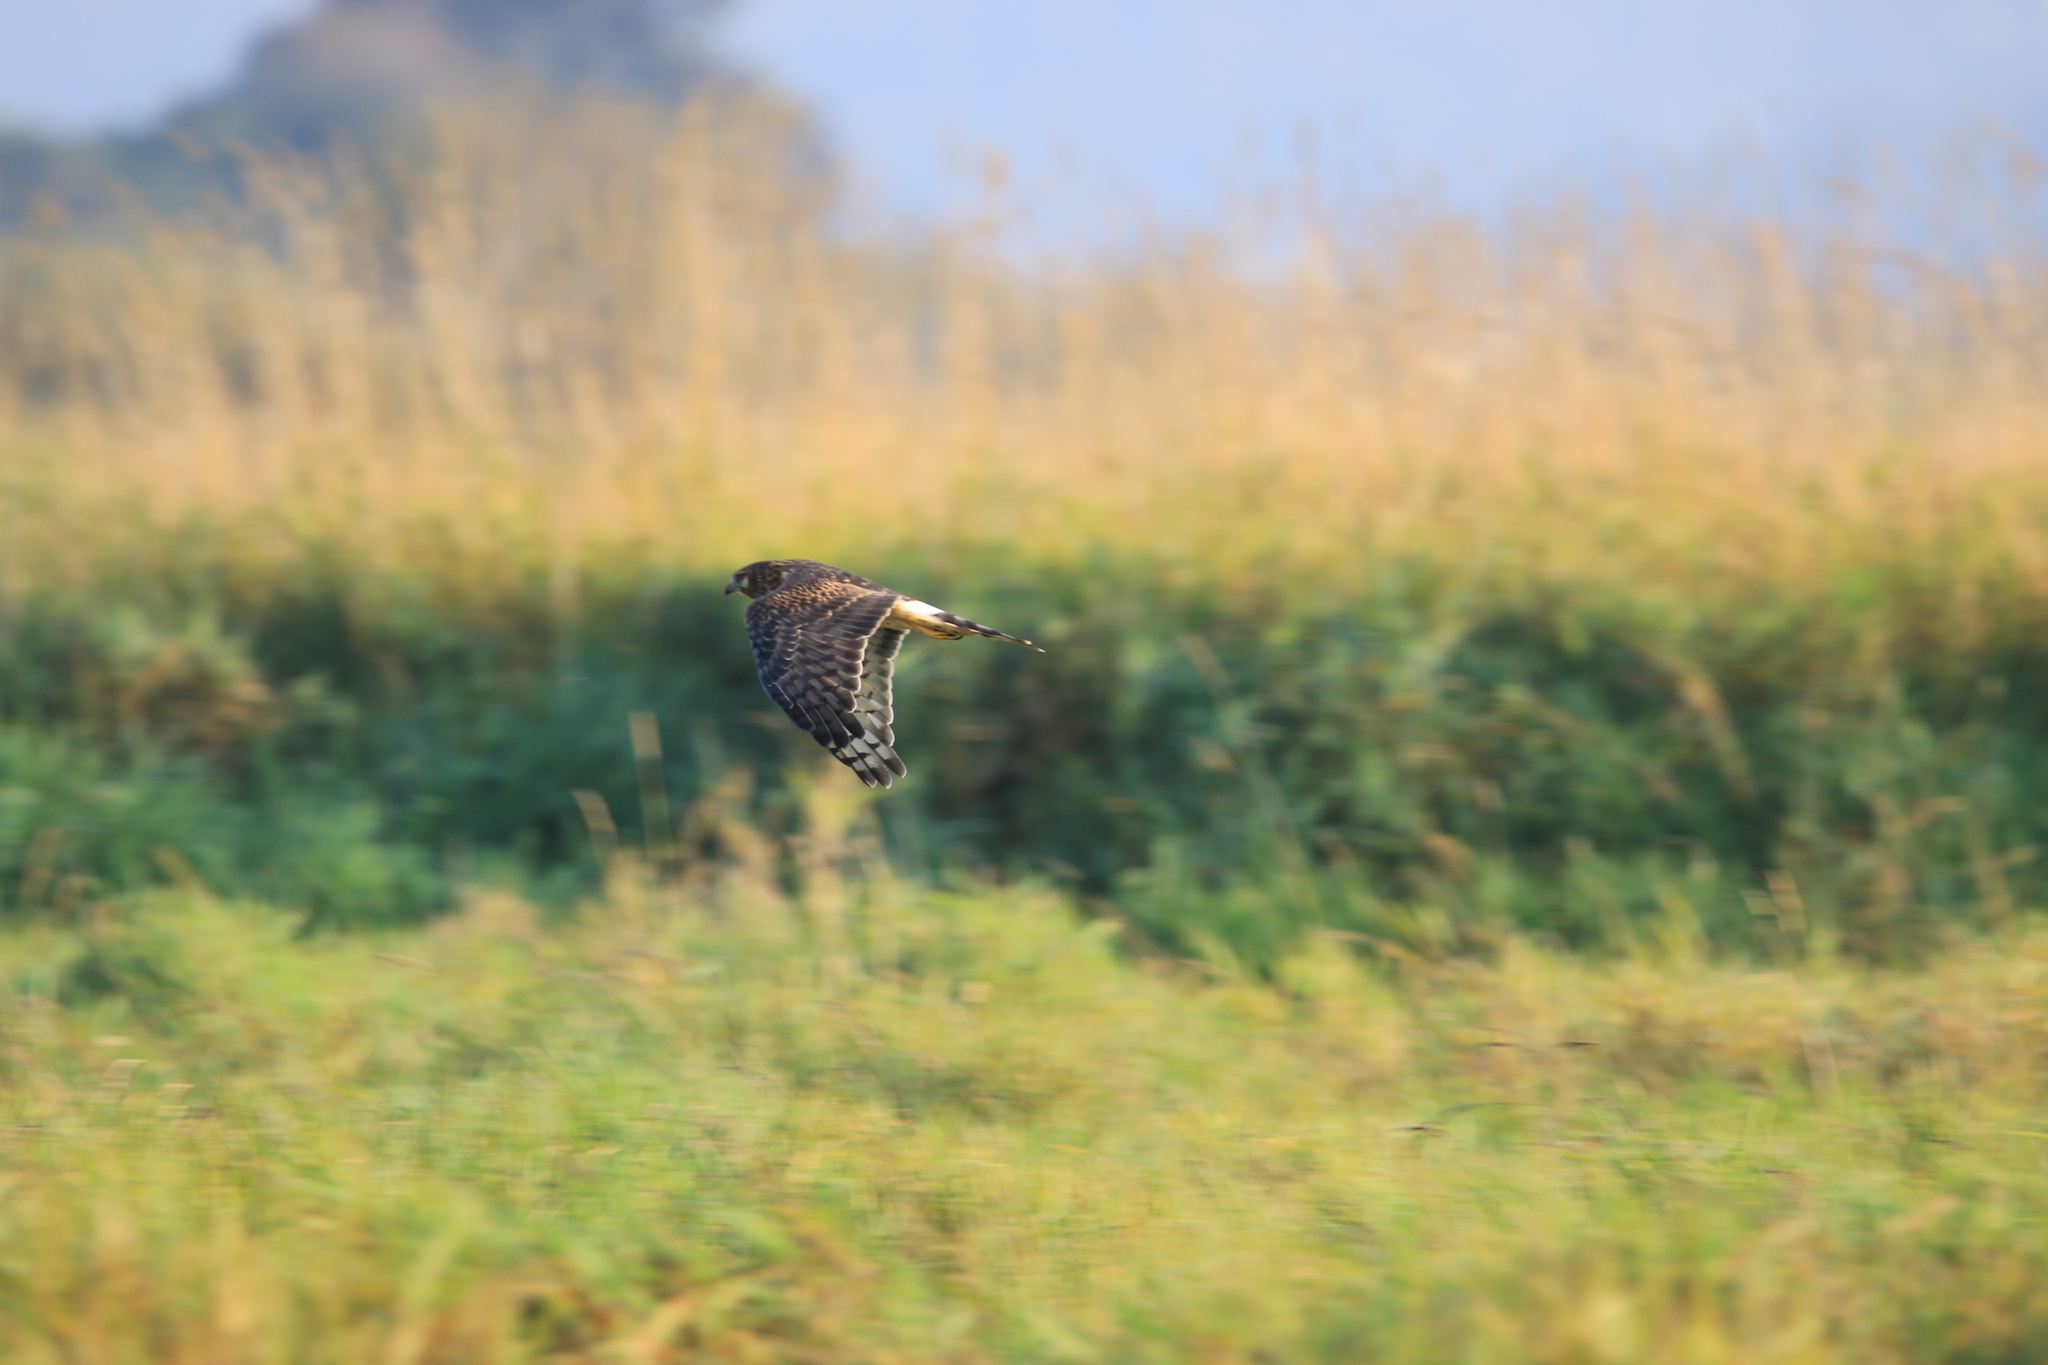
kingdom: Animalia
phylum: Chordata
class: Aves
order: Accipitriformes
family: Accipitridae
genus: Circus
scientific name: Circus cyaneus
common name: Hen harrier
